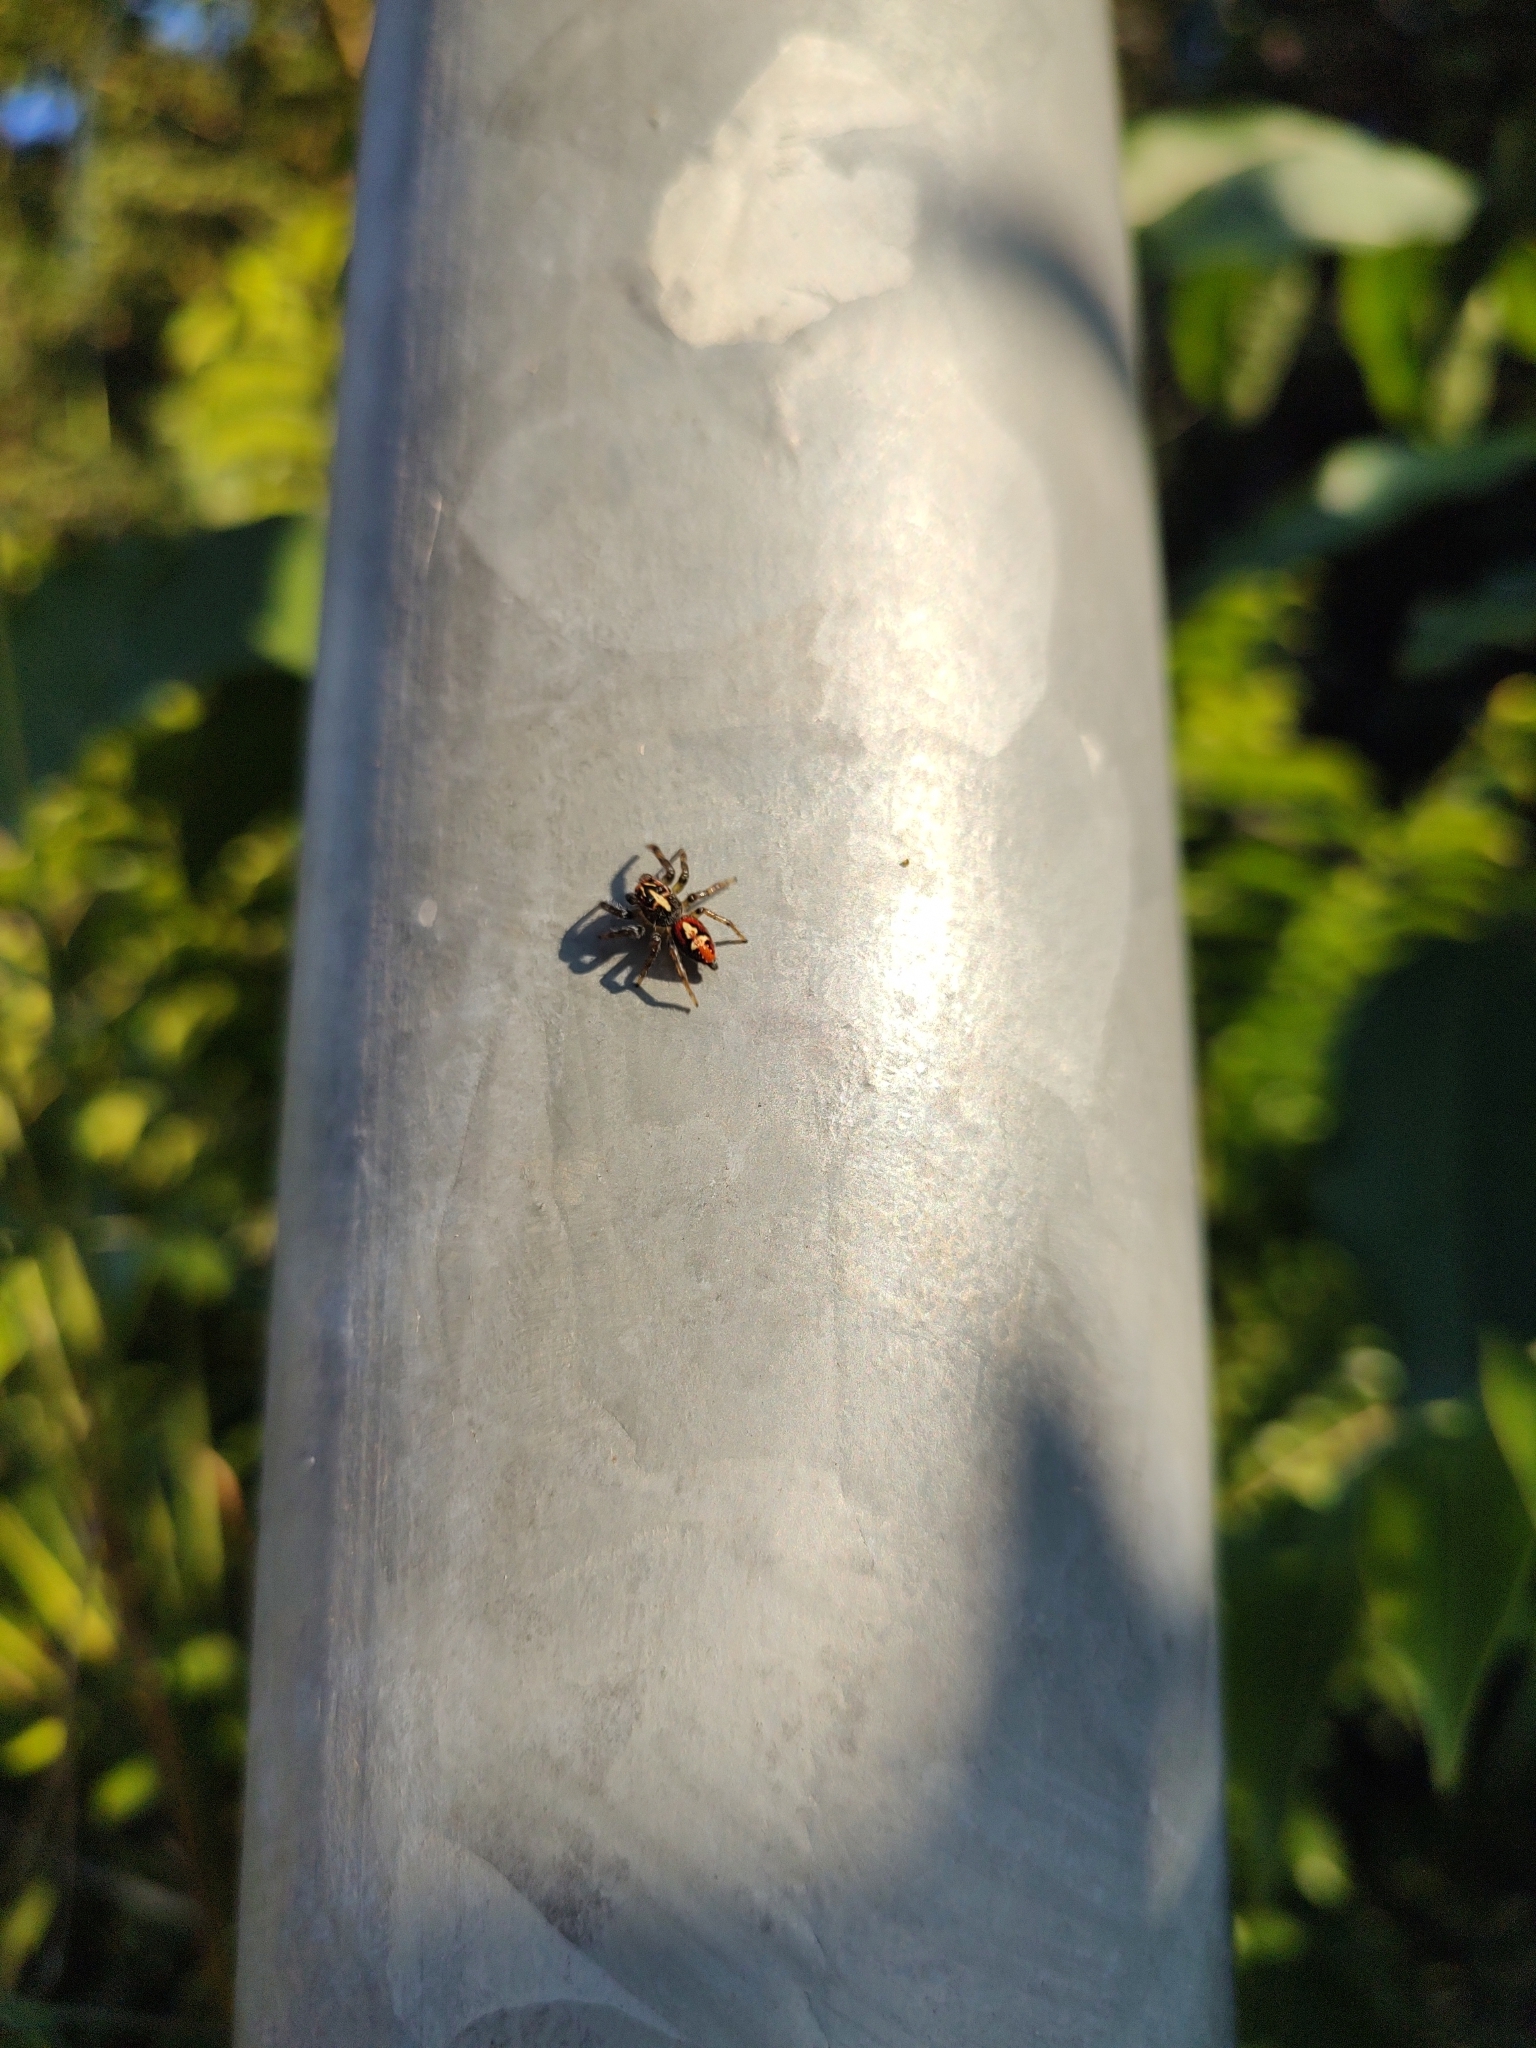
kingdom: Animalia
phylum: Arthropoda
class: Arachnida
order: Araneae
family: Salticidae
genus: Frigga
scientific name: Frigga quintensis
